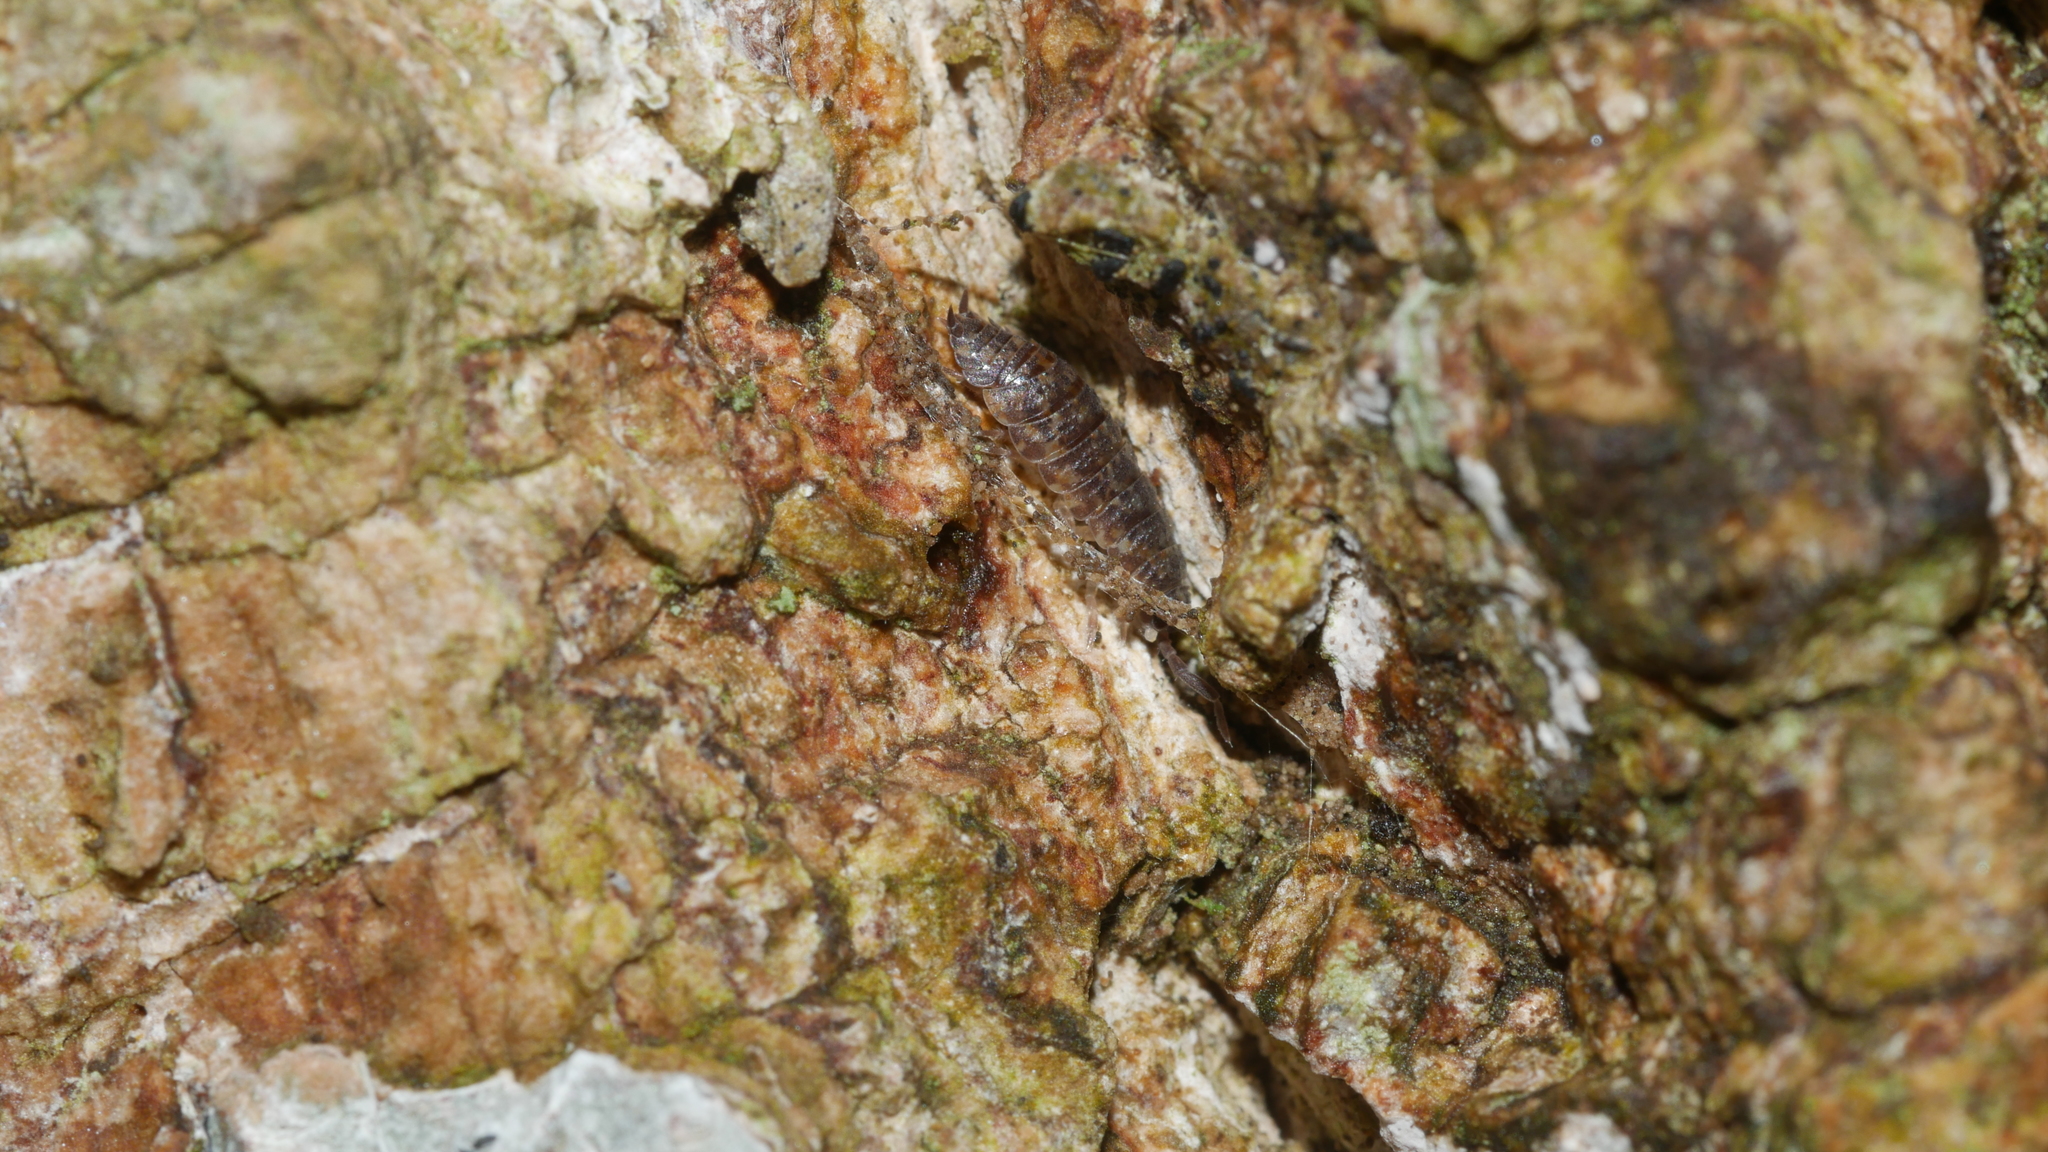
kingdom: Animalia
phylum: Arthropoda
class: Malacostraca
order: Isopoda
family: Porcellionidae
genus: Porcellio
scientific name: Porcellio scaber
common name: Common rough woodlouse
